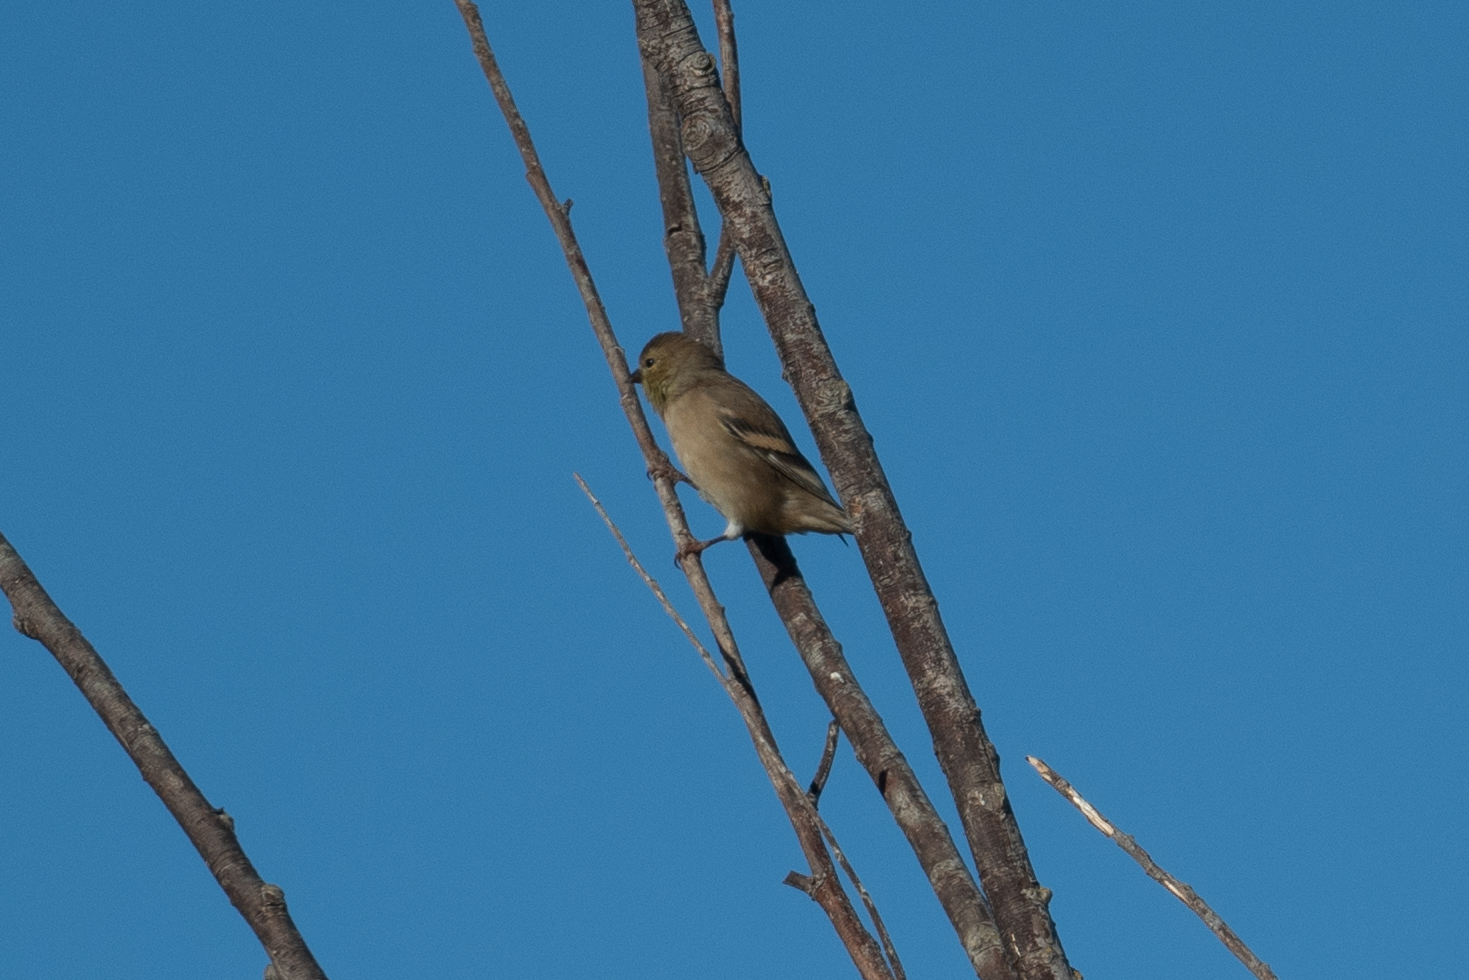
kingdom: Animalia
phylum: Chordata
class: Aves
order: Passeriformes
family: Fringillidae
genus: Spinus
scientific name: Spinus tristis
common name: American goldfinch
